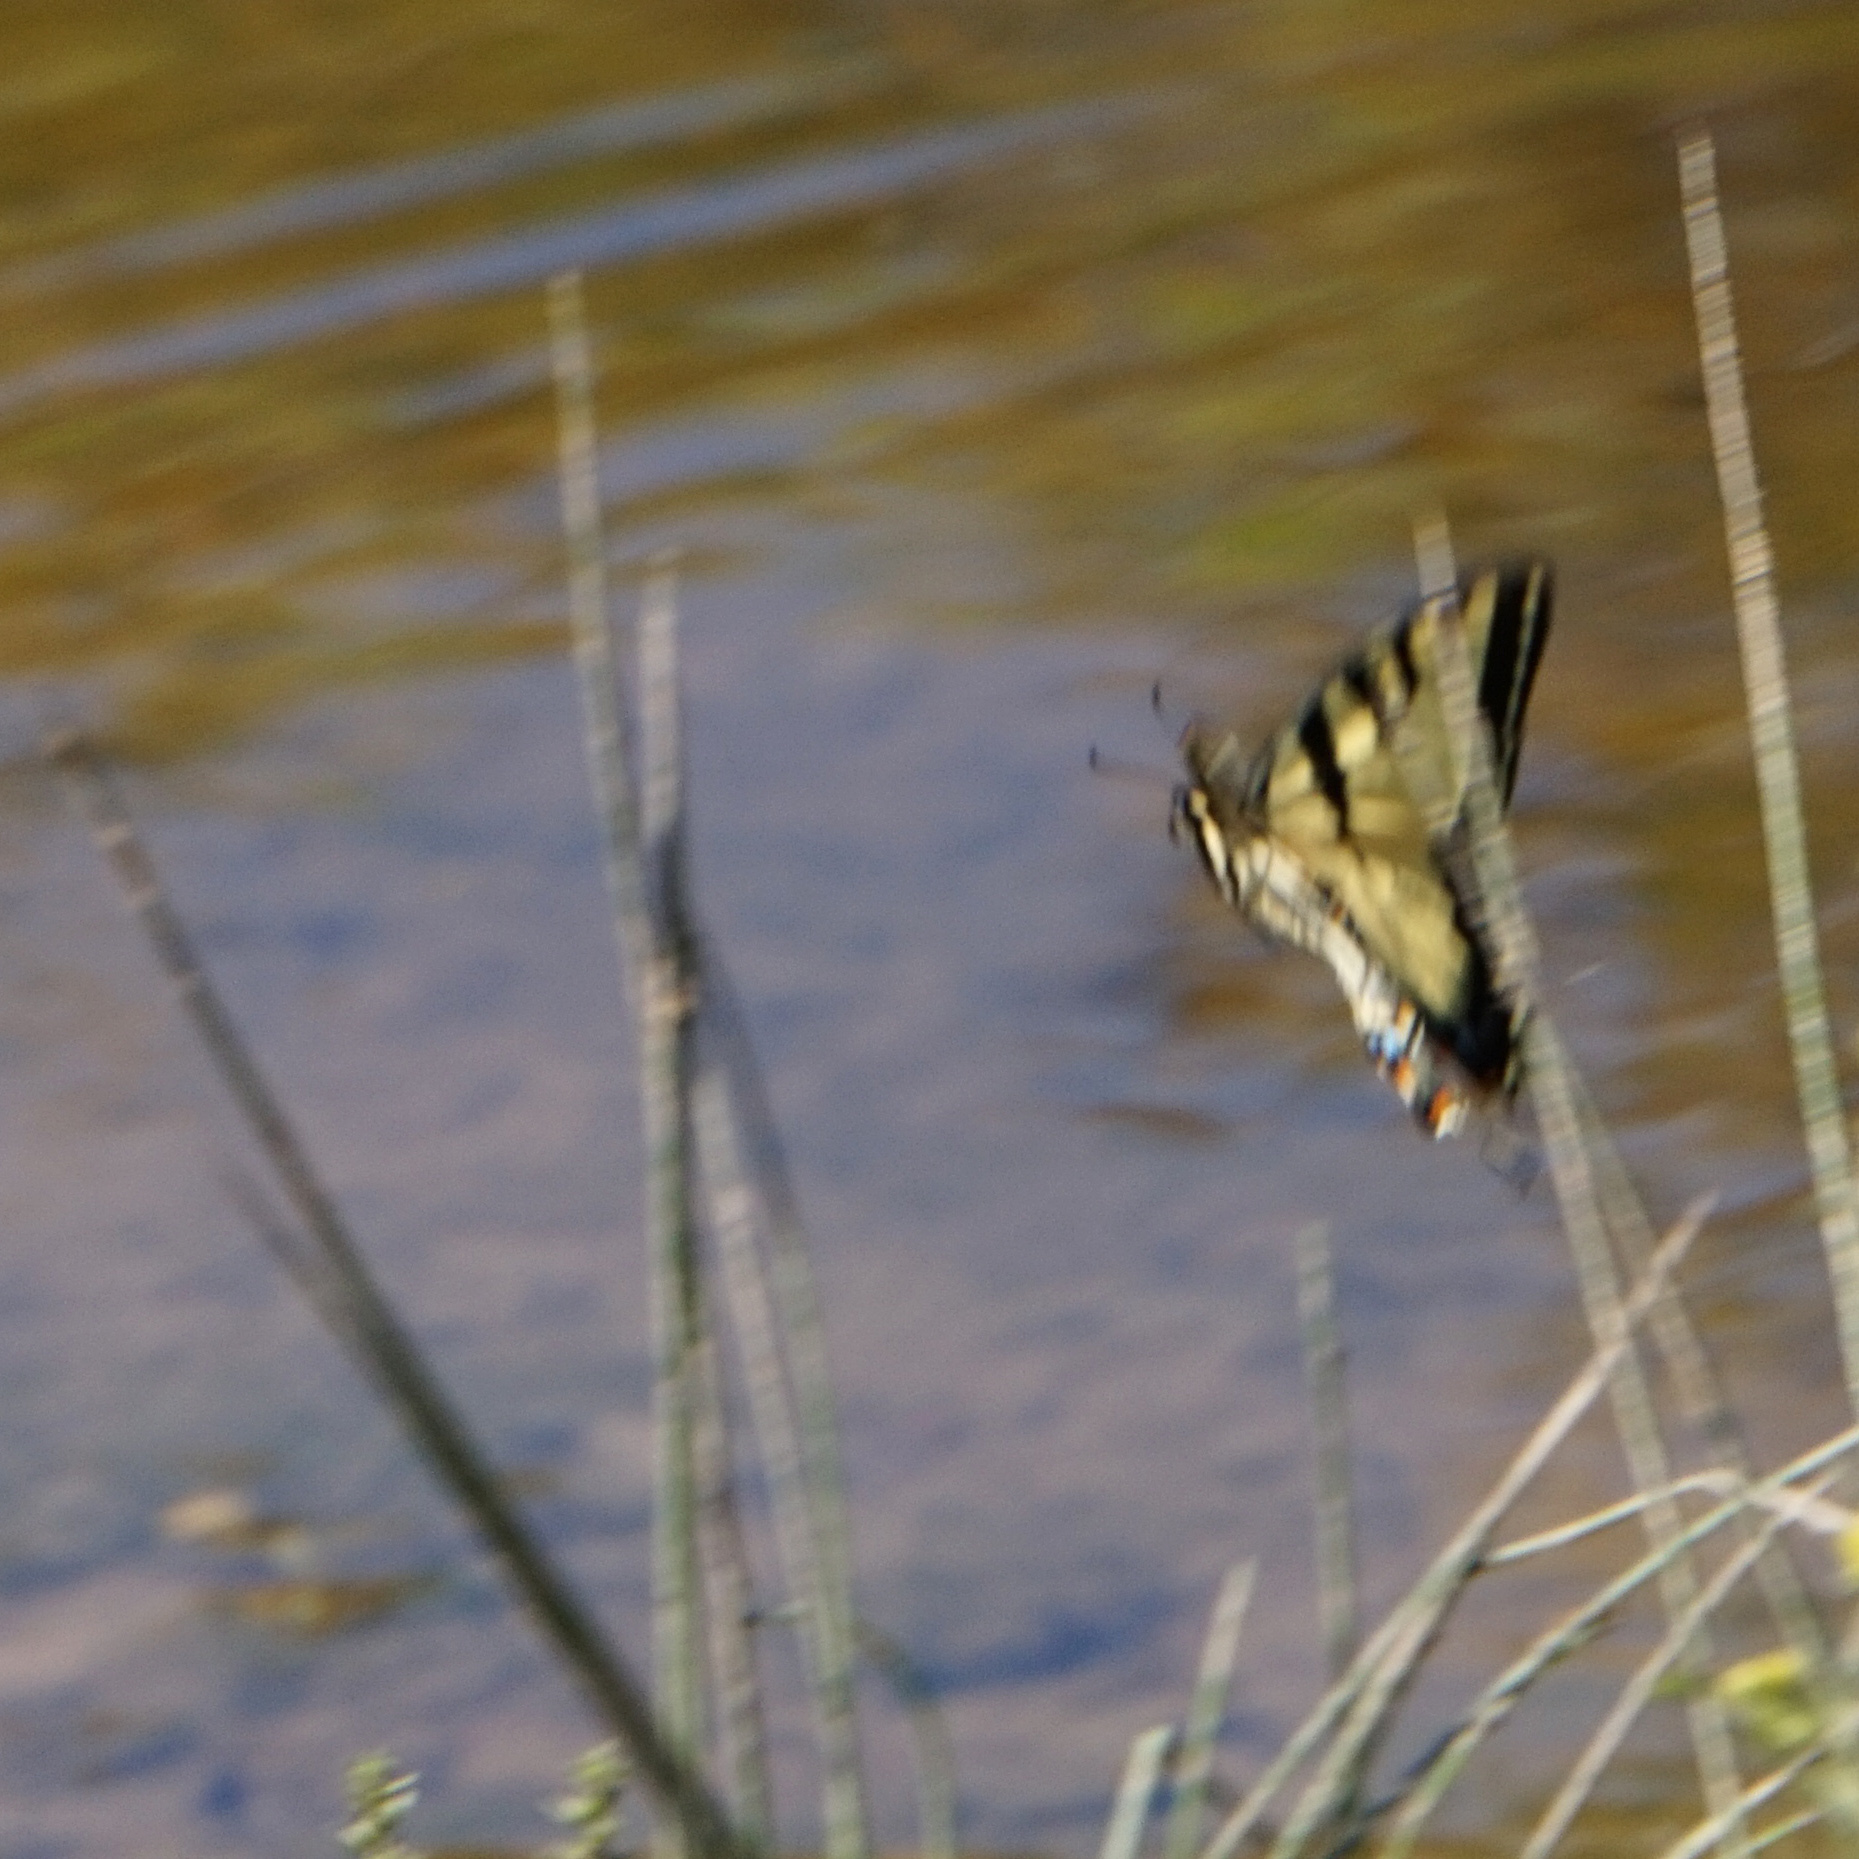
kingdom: Animalia
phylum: Arthropoda
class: Insecta
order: Lepidoptera
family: Papilionidae
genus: Papilio
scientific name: Papilio glaucus
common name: Tiger swallowtail
